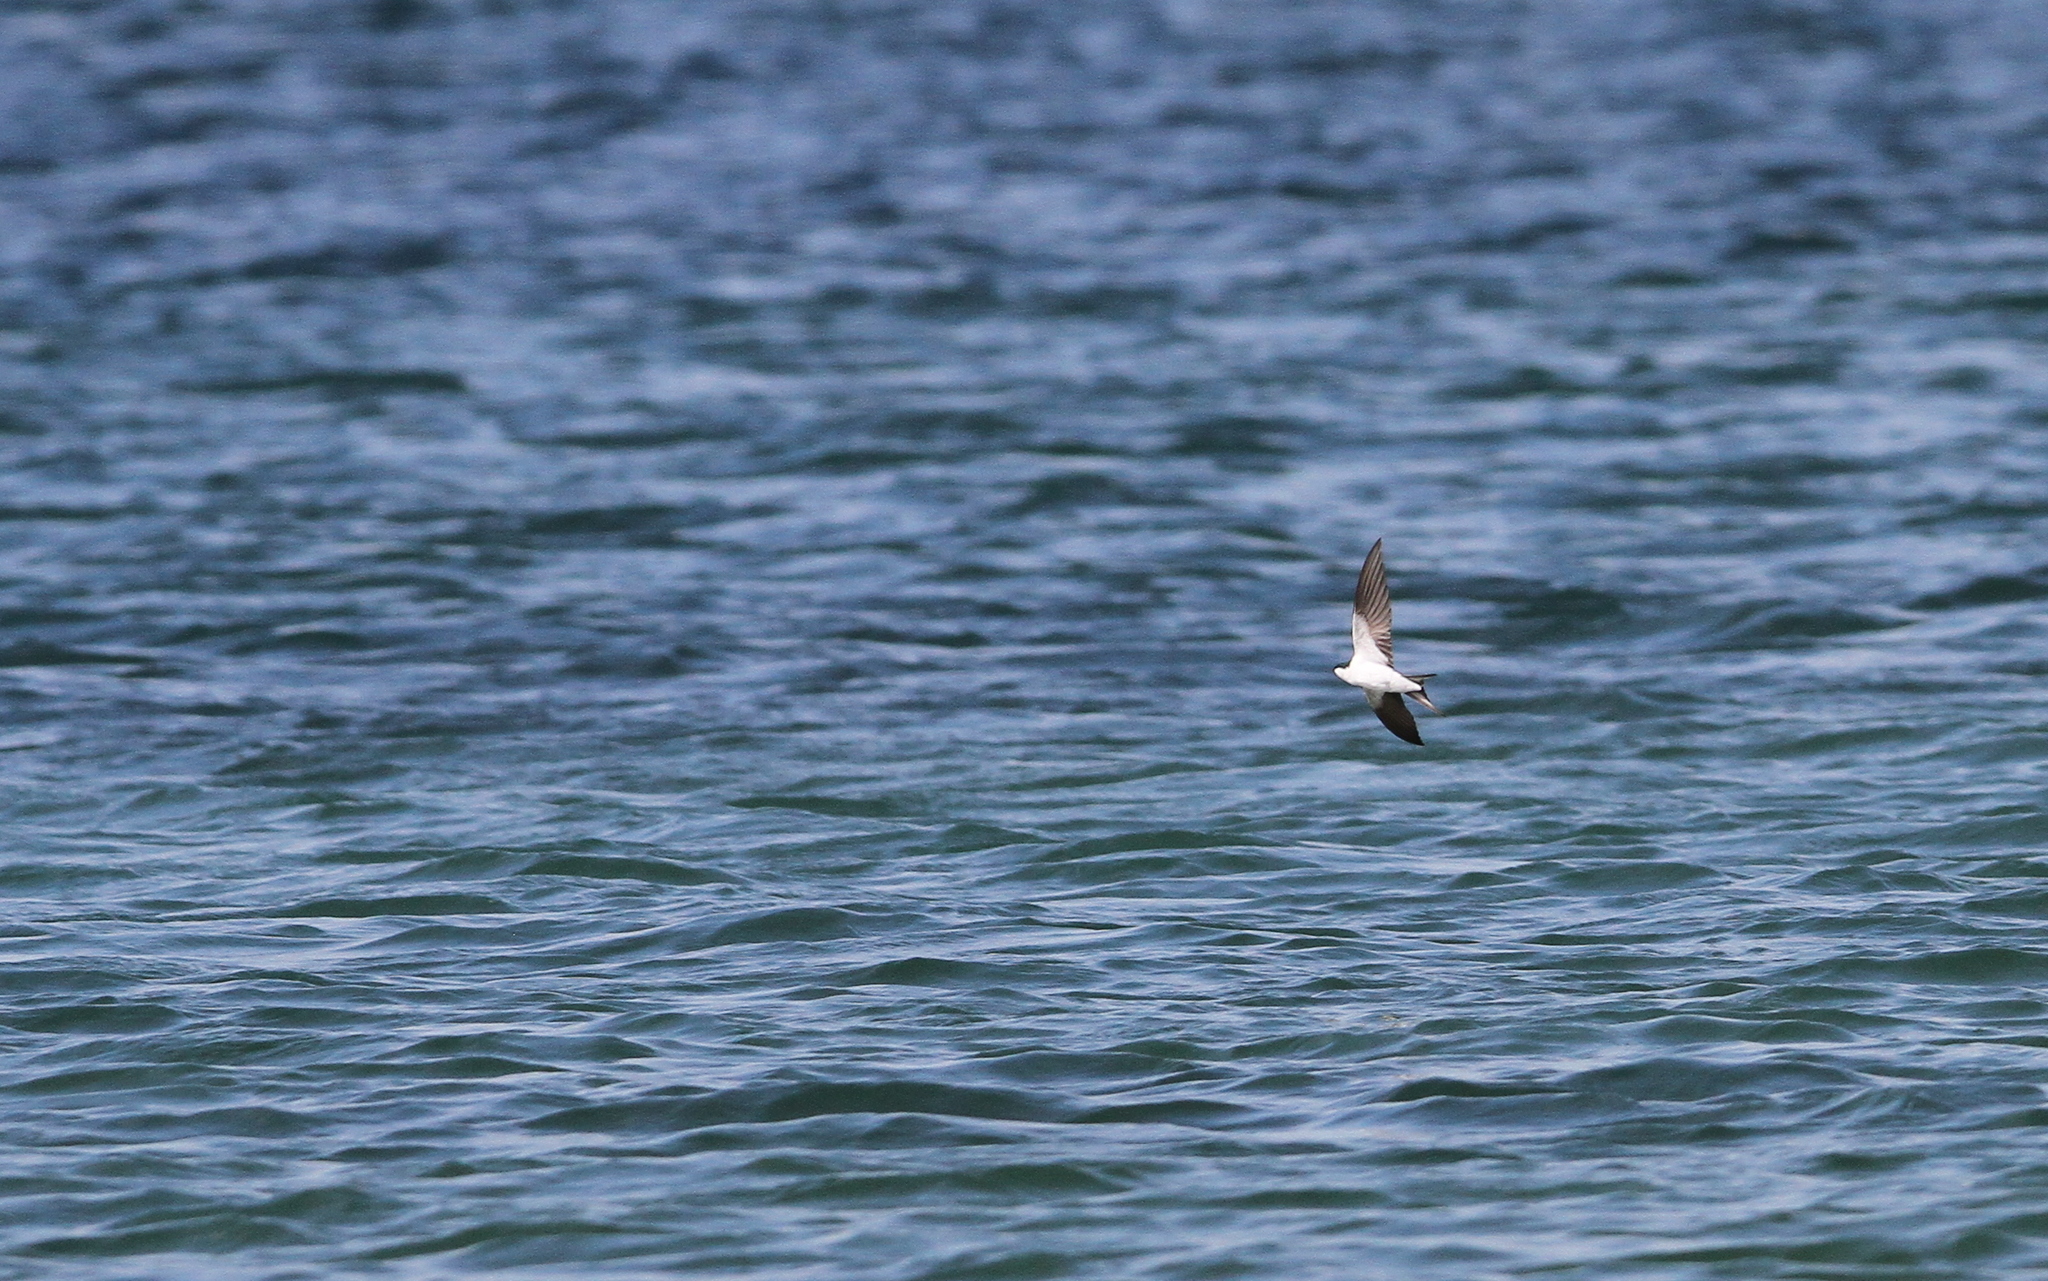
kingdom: Animalia
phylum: Chordata
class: Aves
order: Passeriformes
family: Hirundinidae
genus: Tachycineta
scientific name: Tachycineta cyaneoviridis
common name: Bahama swallow
